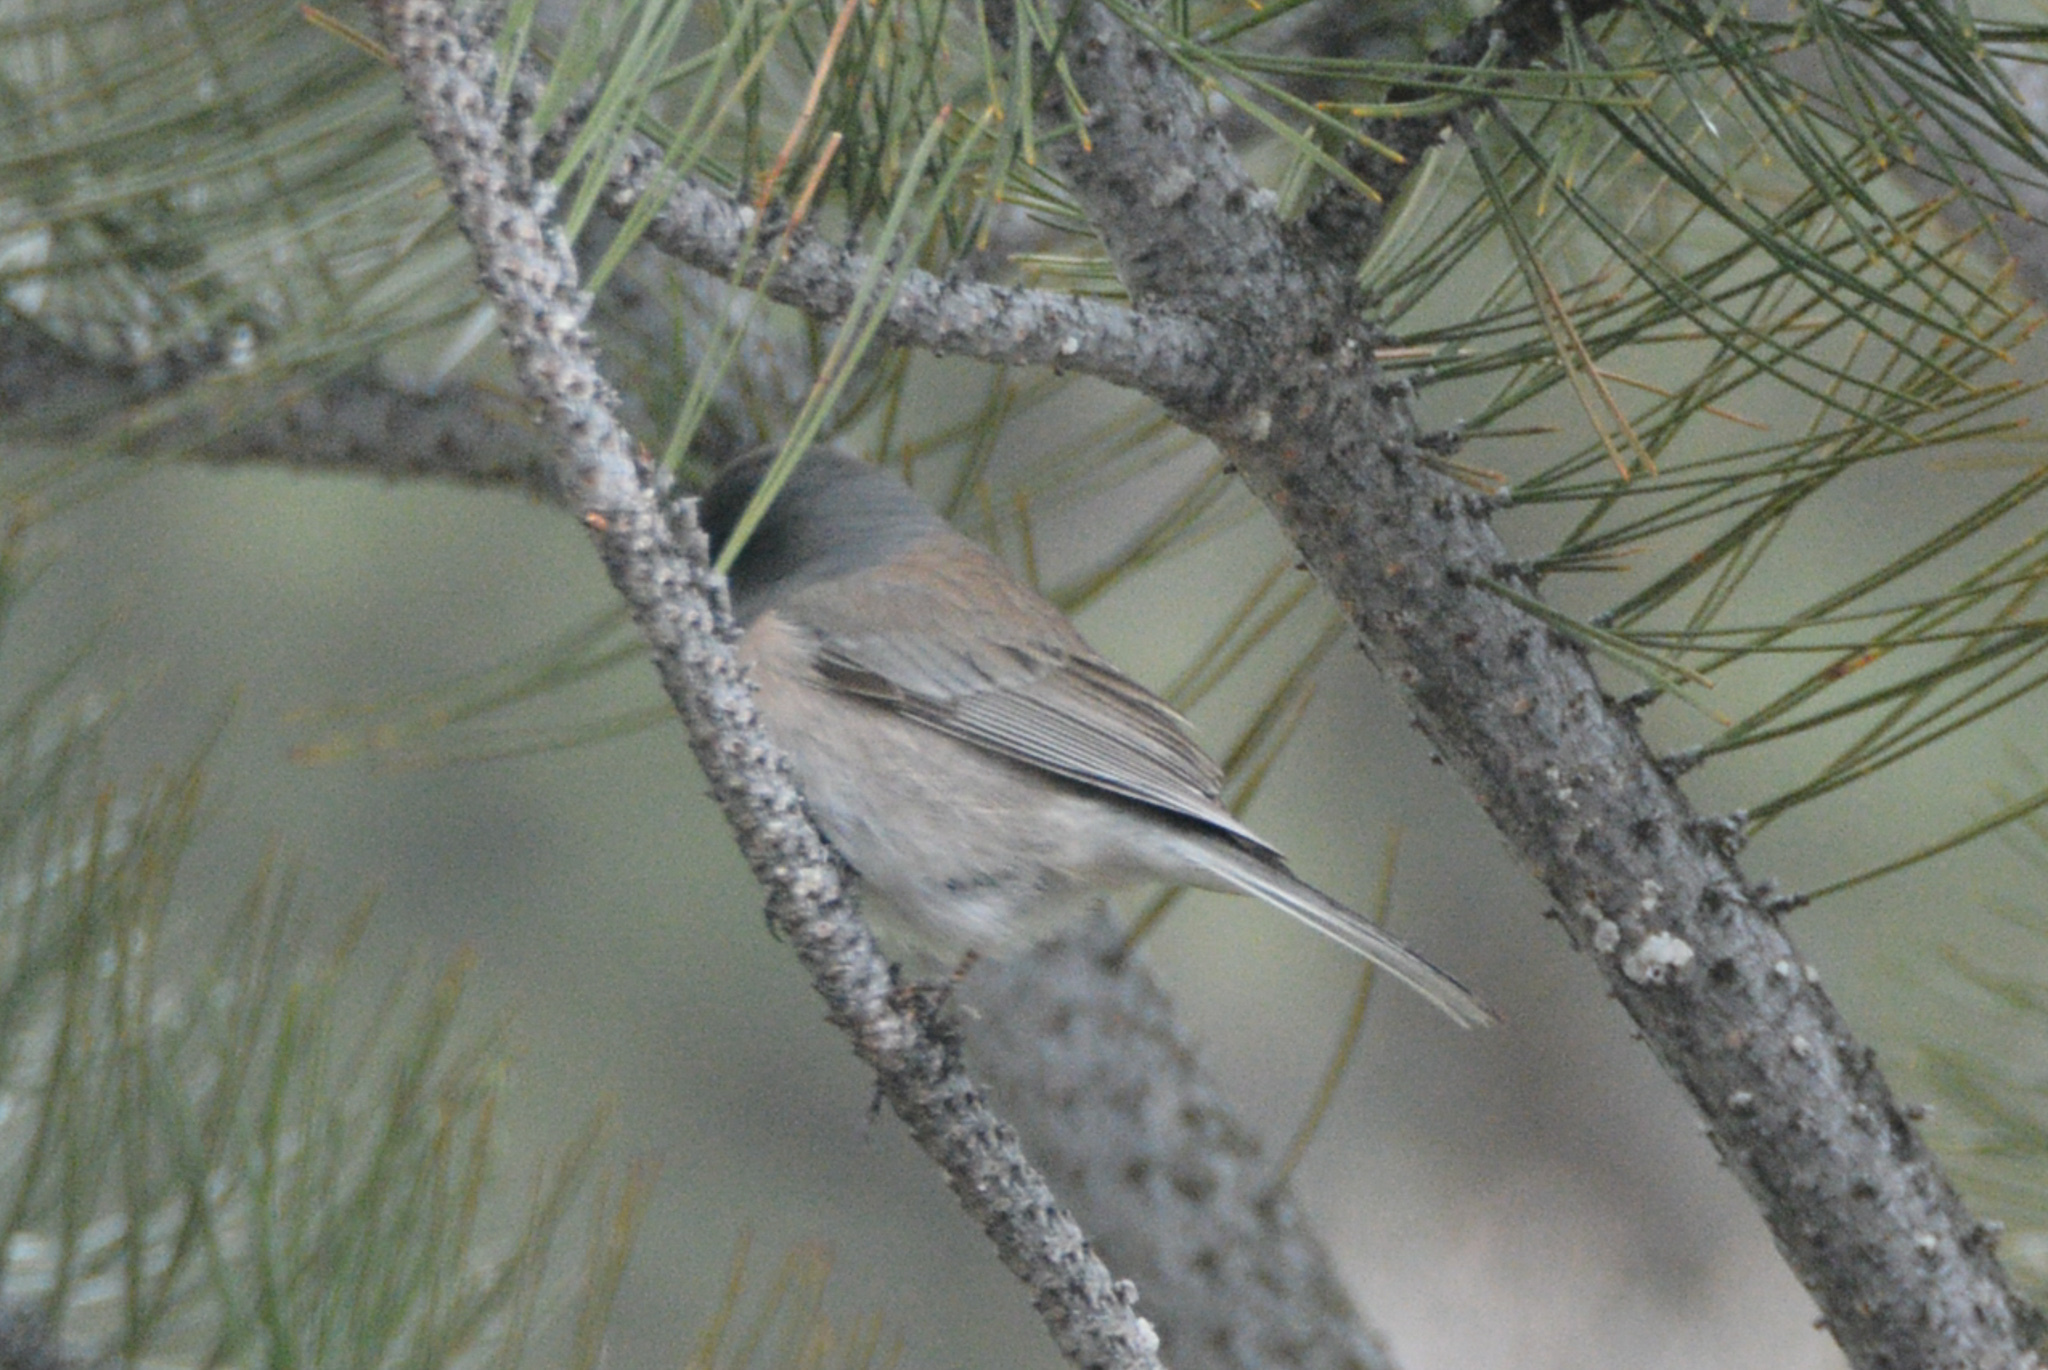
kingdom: Animalia
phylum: Chordata
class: Aves
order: Passeriformes
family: Passerellidae
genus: Junco
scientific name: Junco hyemalis
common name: Dark-eyed junco
